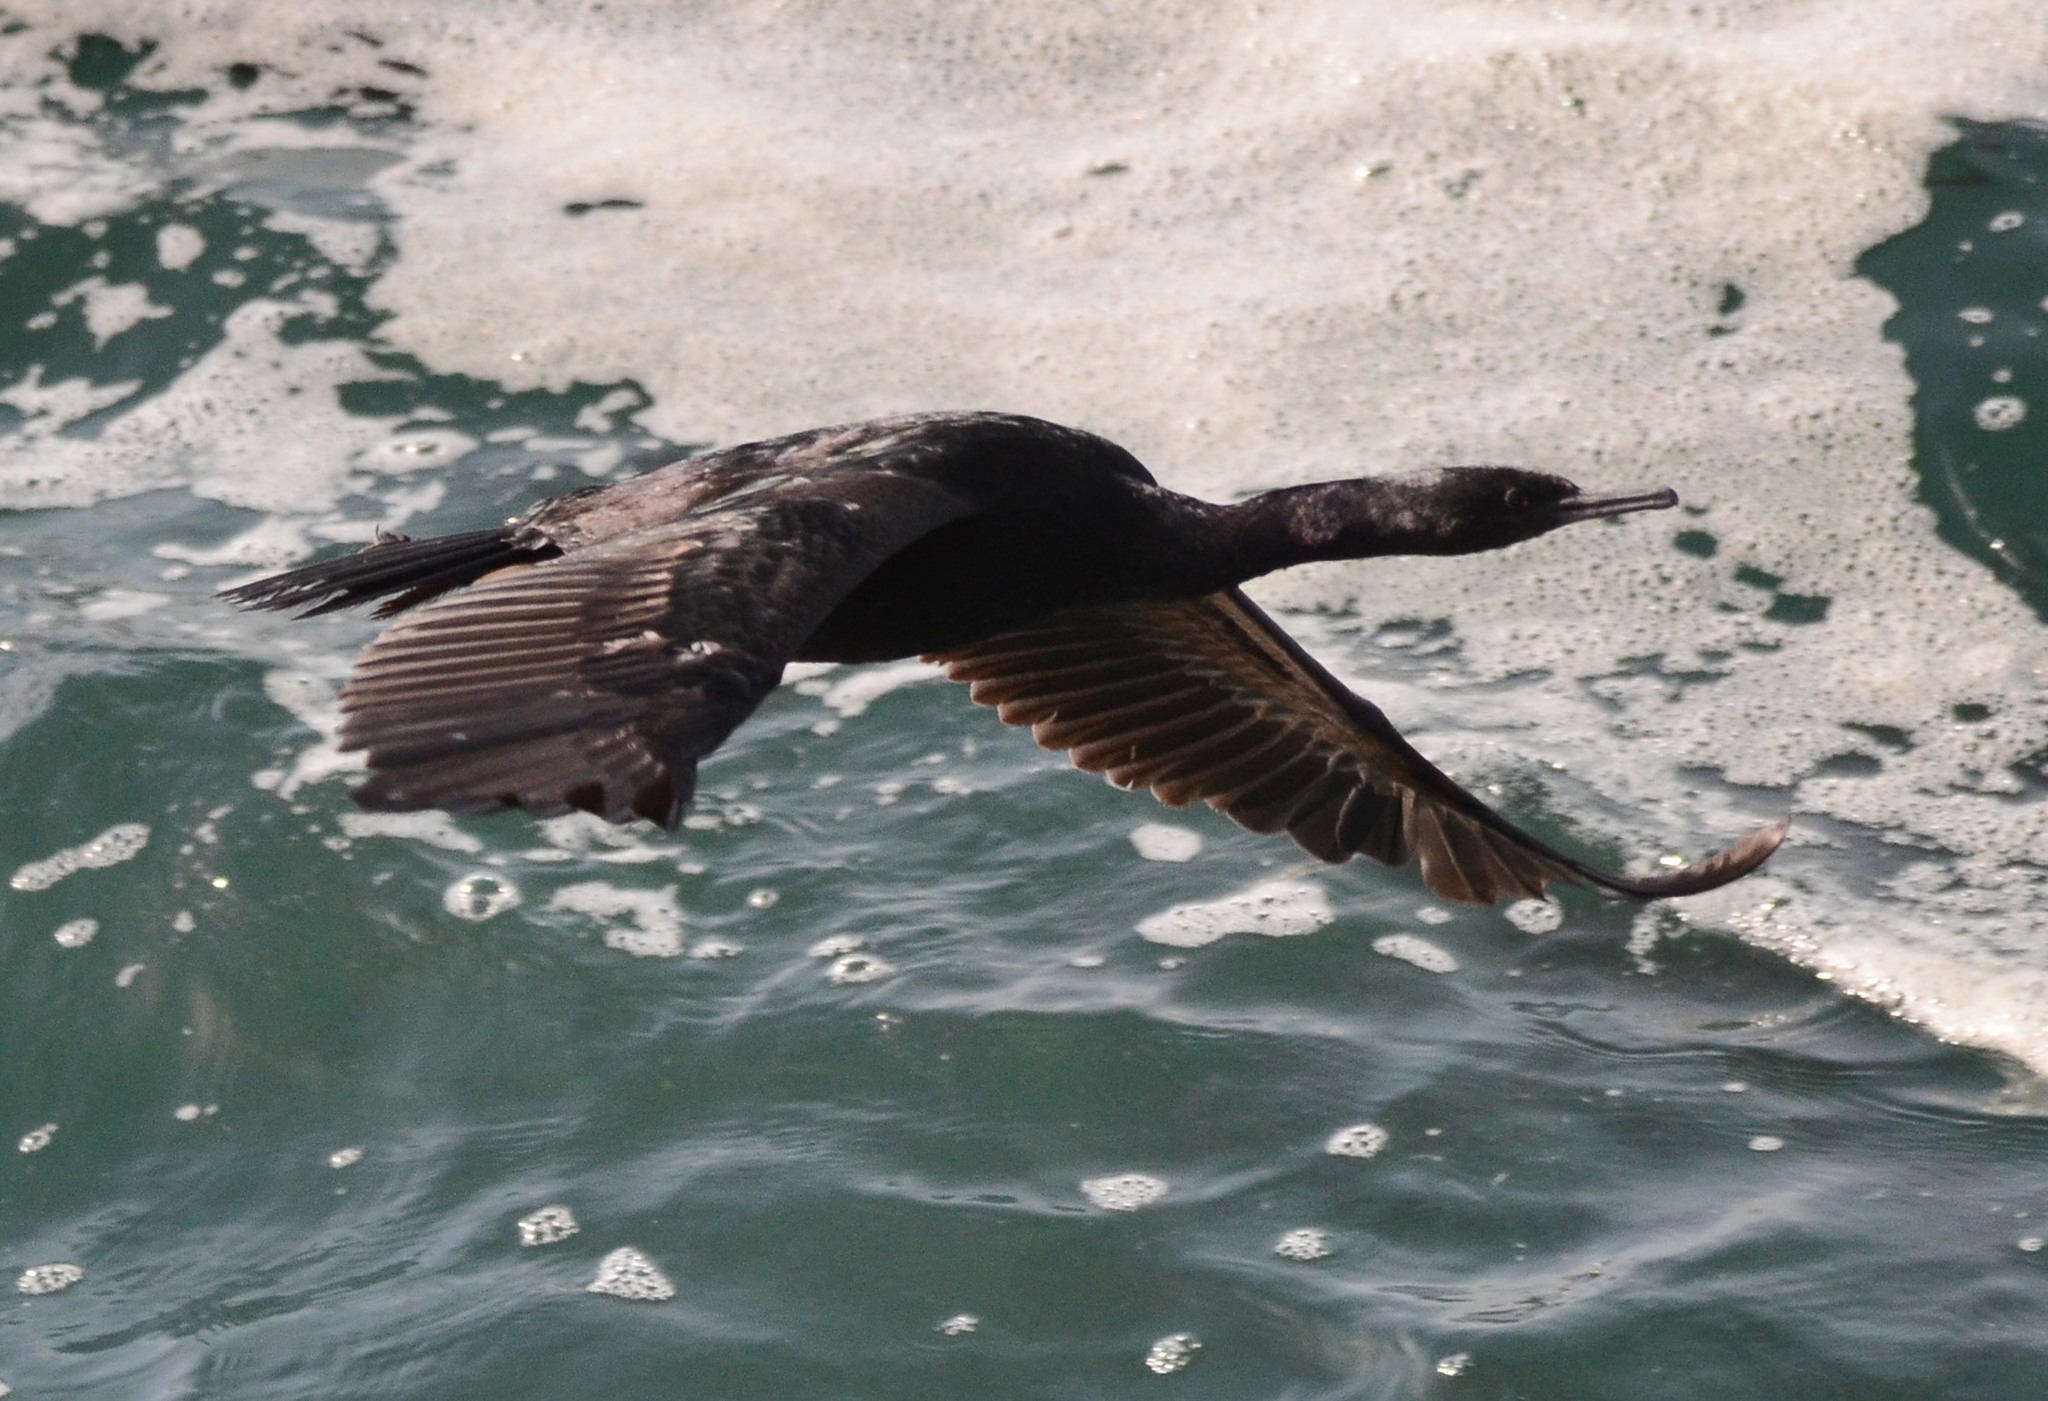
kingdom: Animalia
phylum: Chordata
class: Aves
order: Suliformes
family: Phalacrocoracidae
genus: Phalacrocorax
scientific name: Phalacrocorax pelagicus
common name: Pelagic cormorant
